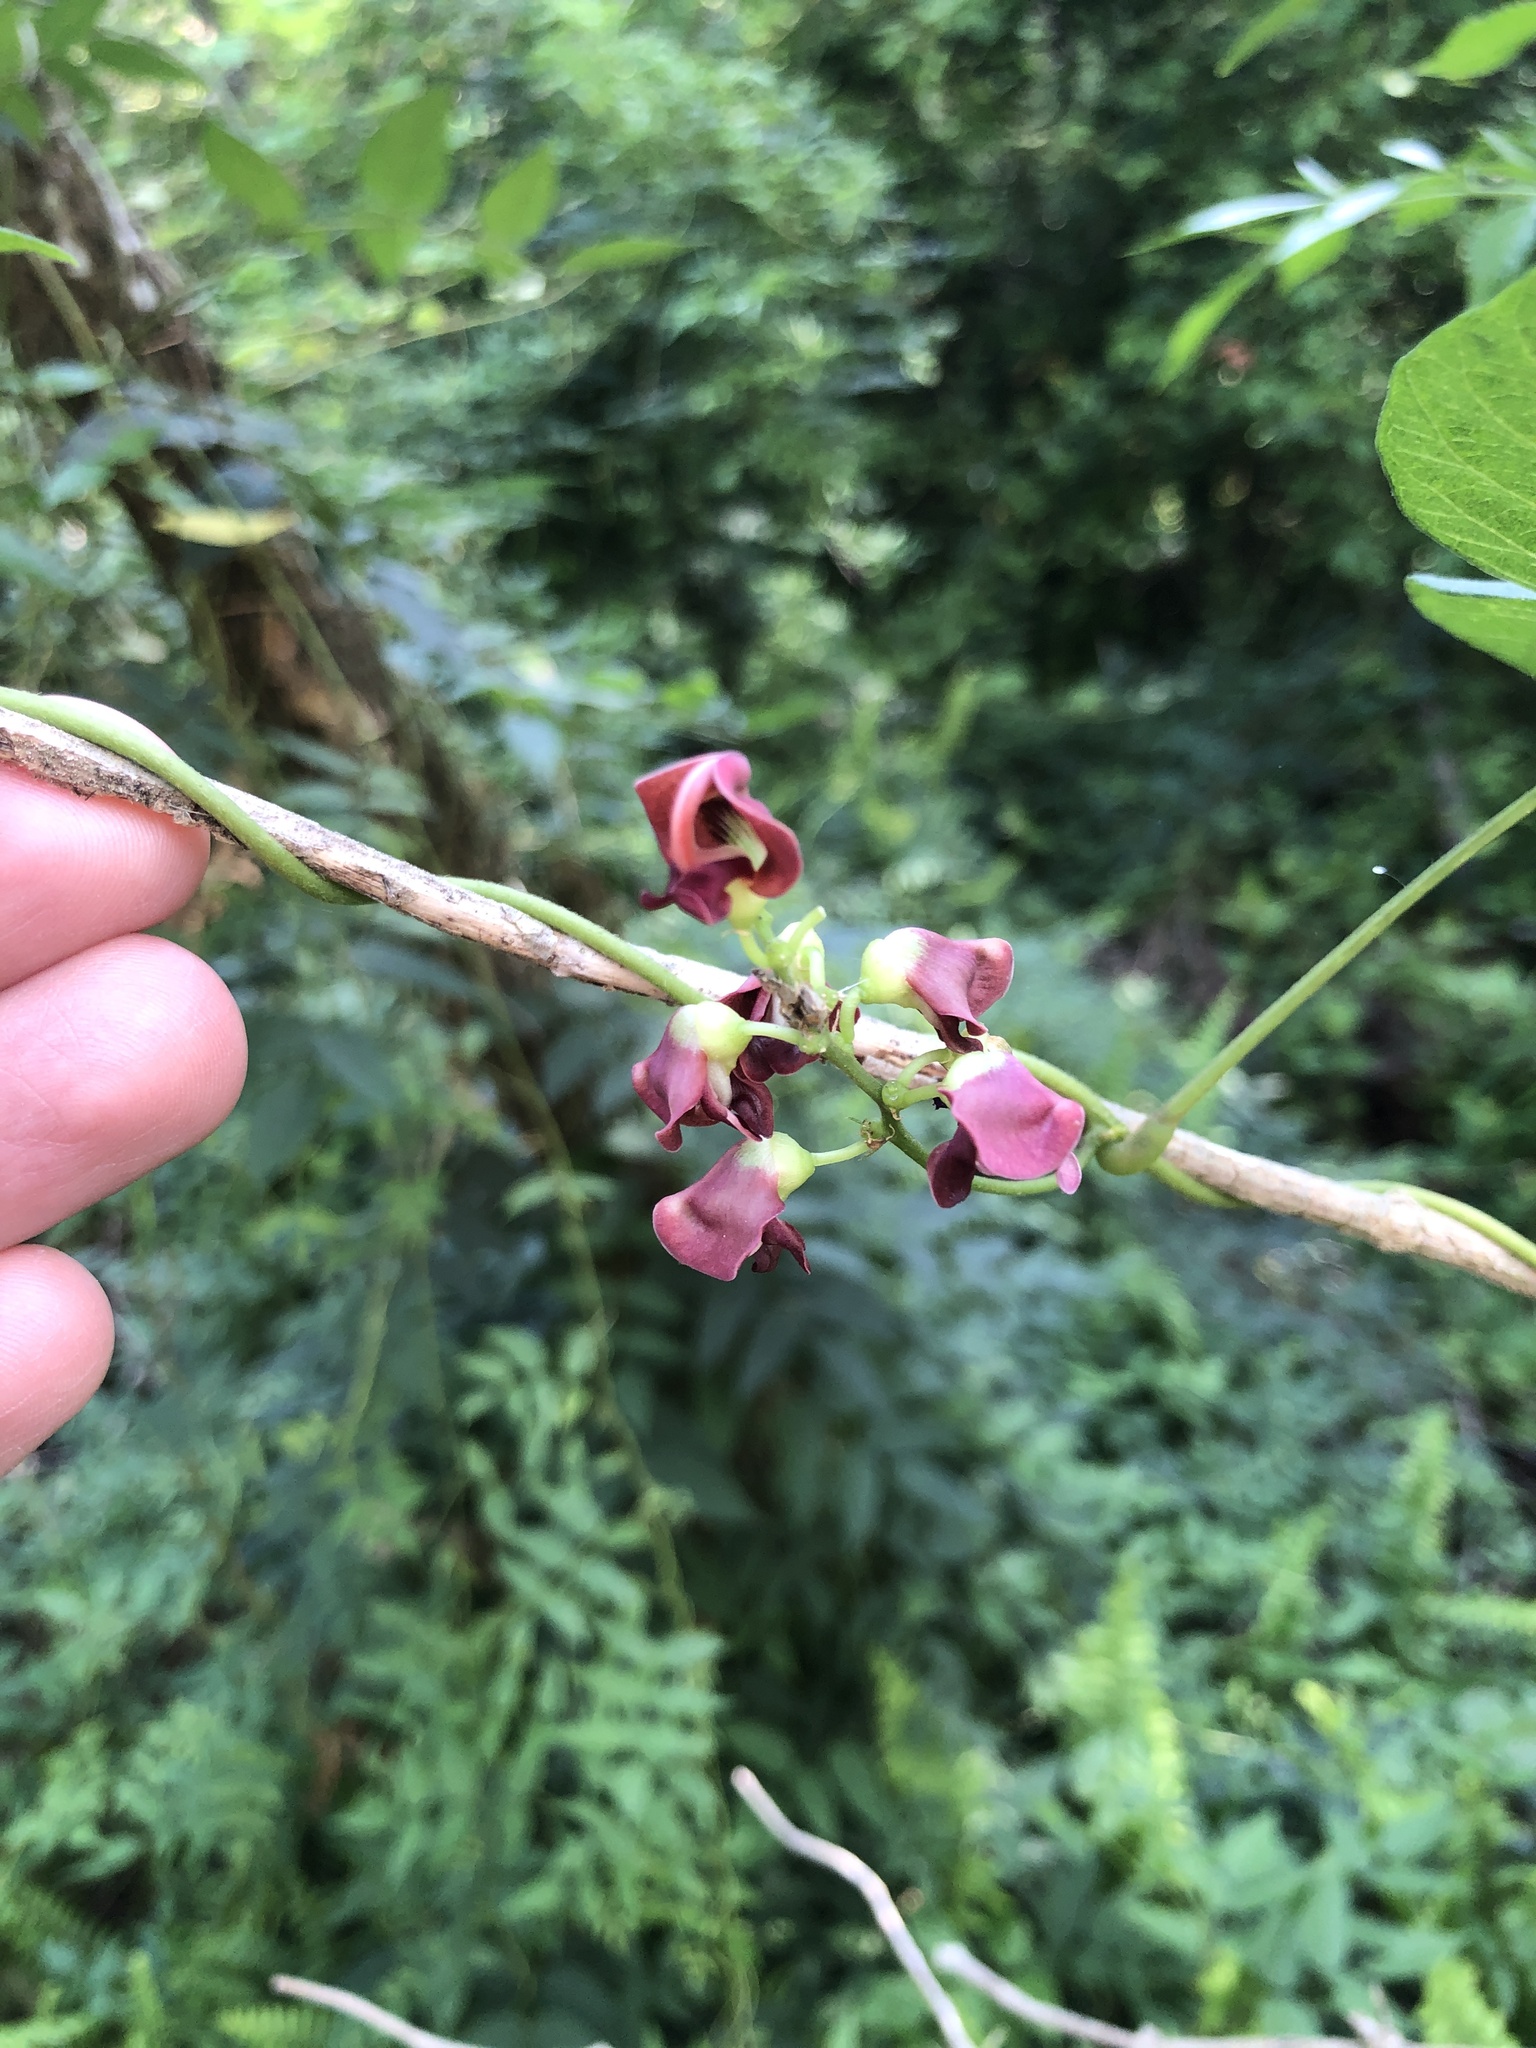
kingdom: Plantae
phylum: Tracheophyta
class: Magnoliopsida
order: Fabales
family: Fabaceae
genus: Apios
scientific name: Apios americana
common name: American potato-bean
